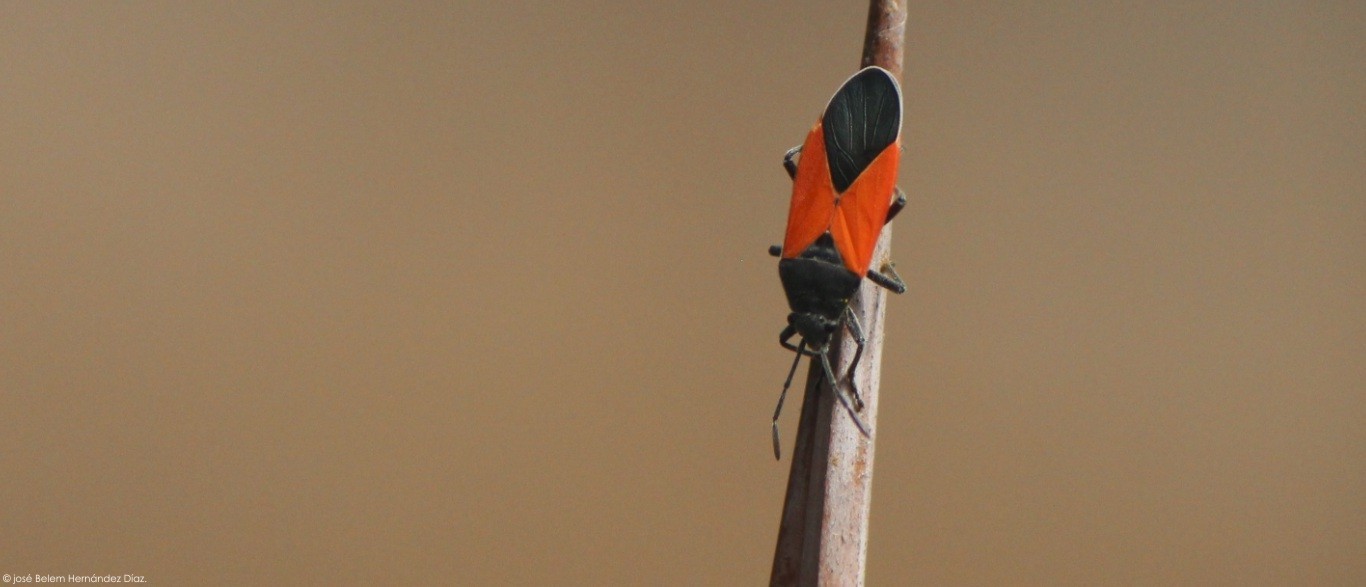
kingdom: Animalia
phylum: Arthropoda
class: Insecta
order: Hemiptera
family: Lygaeidae
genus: Melanopleurus
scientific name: Melanopleurus belfragei
